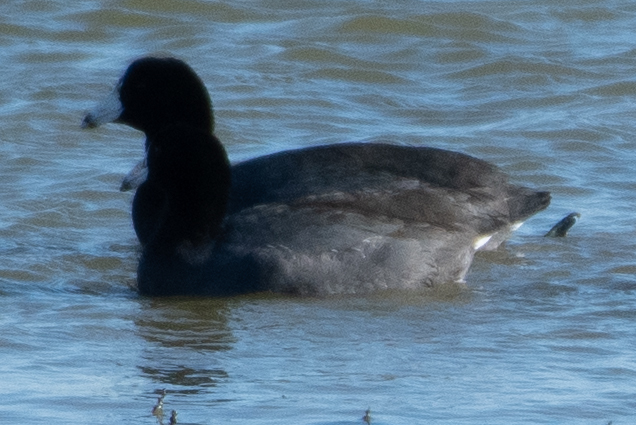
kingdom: Animalia
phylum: Chordata
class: Aves
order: Gruiformes
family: Rallidae
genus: Fulica
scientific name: Fulica americana
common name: American coot
